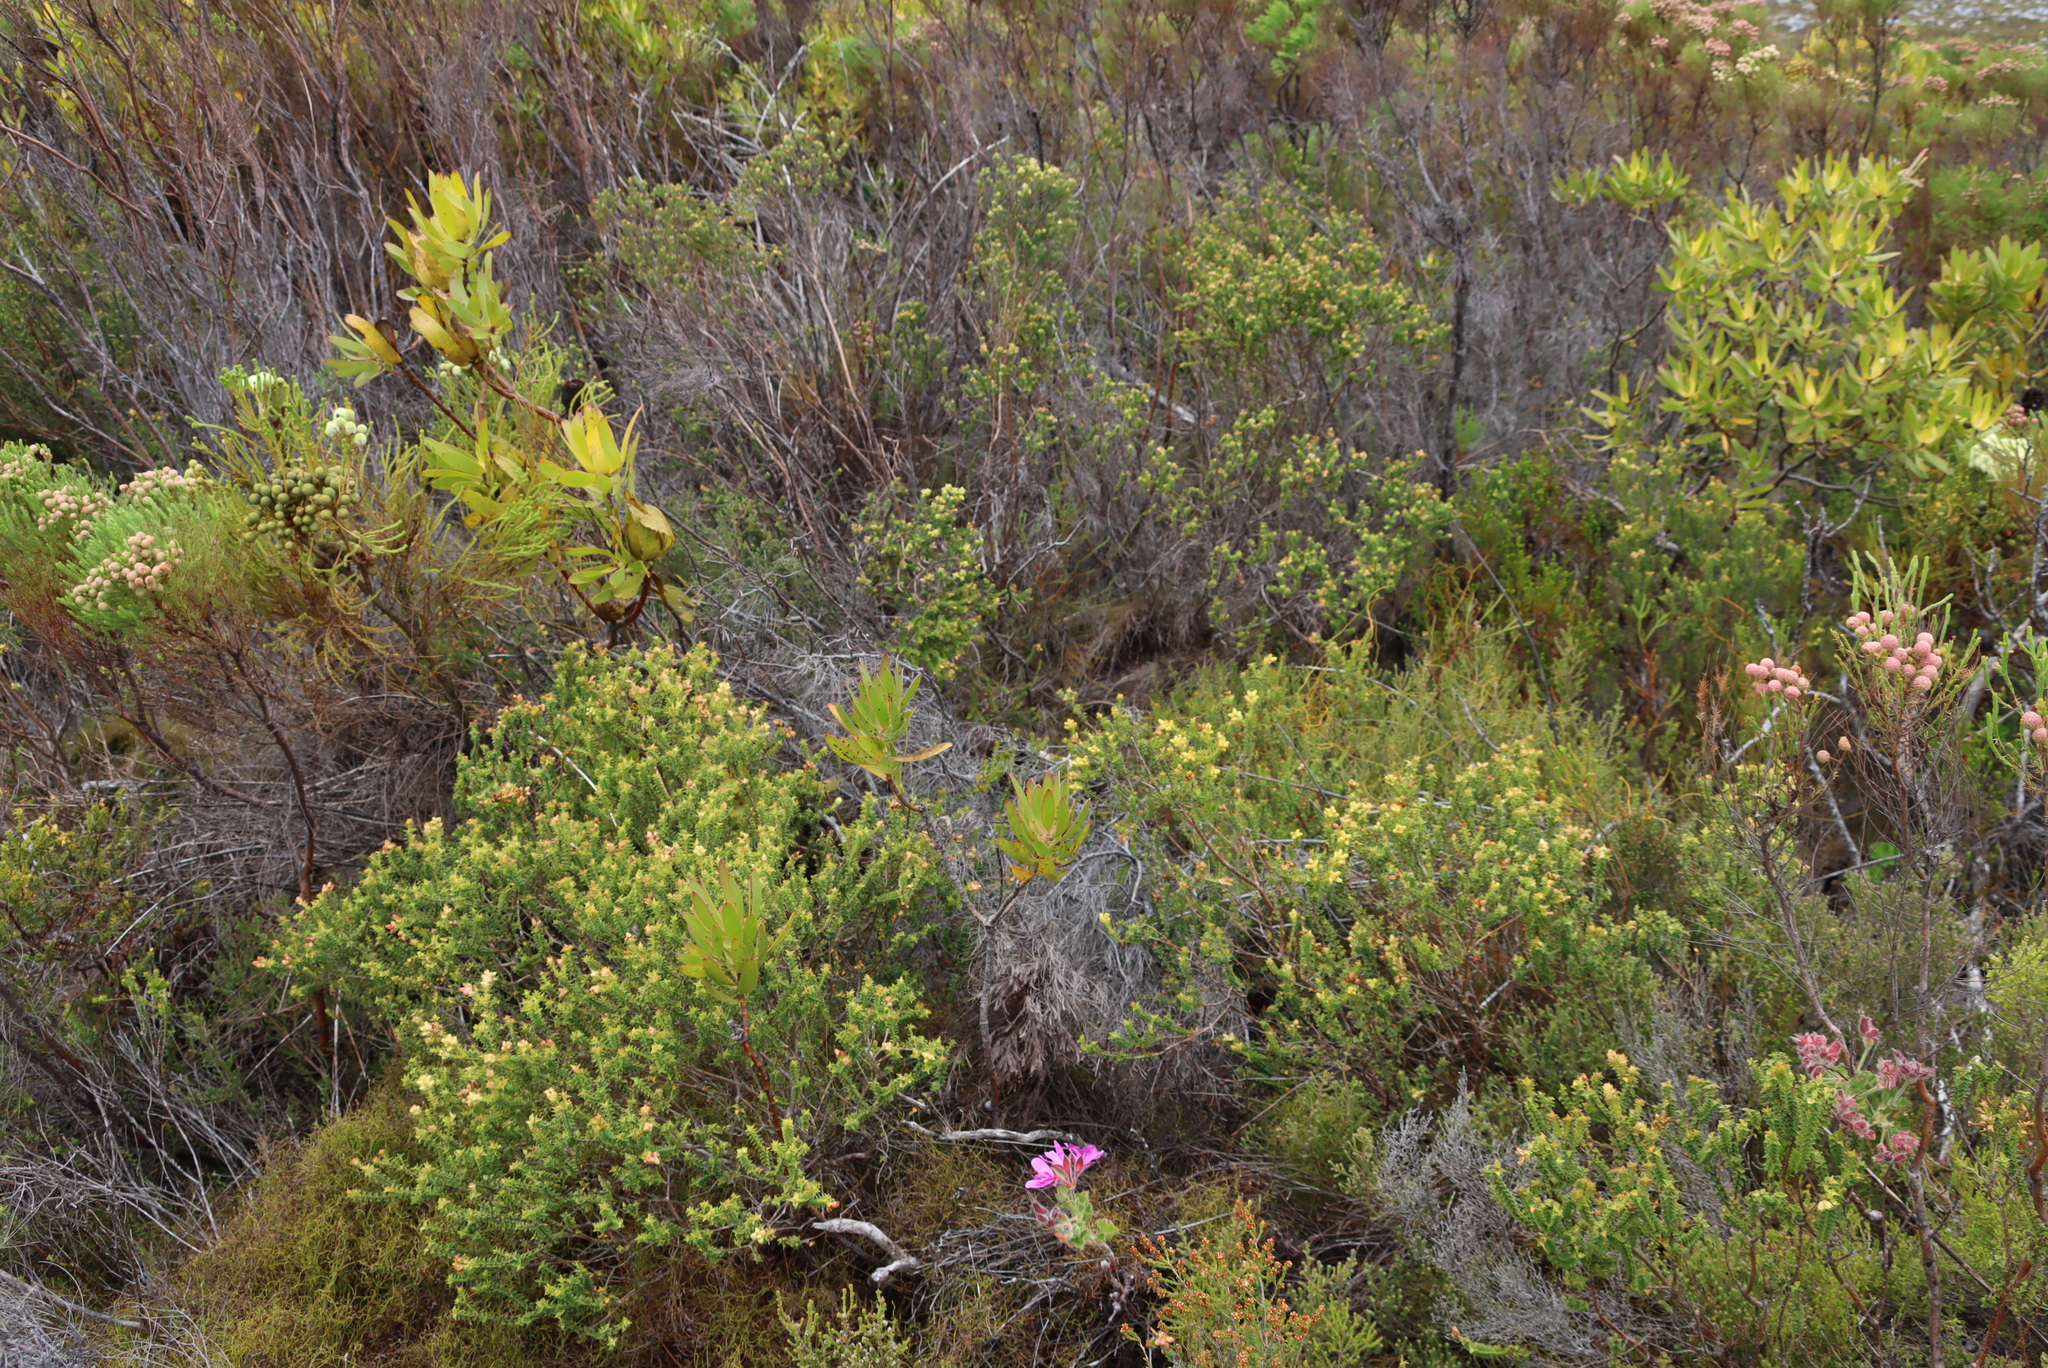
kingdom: Plantae
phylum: Tracheophyta
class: Magnoliopsida
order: Myrtales
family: Penaeaceae
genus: Penaea
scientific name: Penaea mucronata
